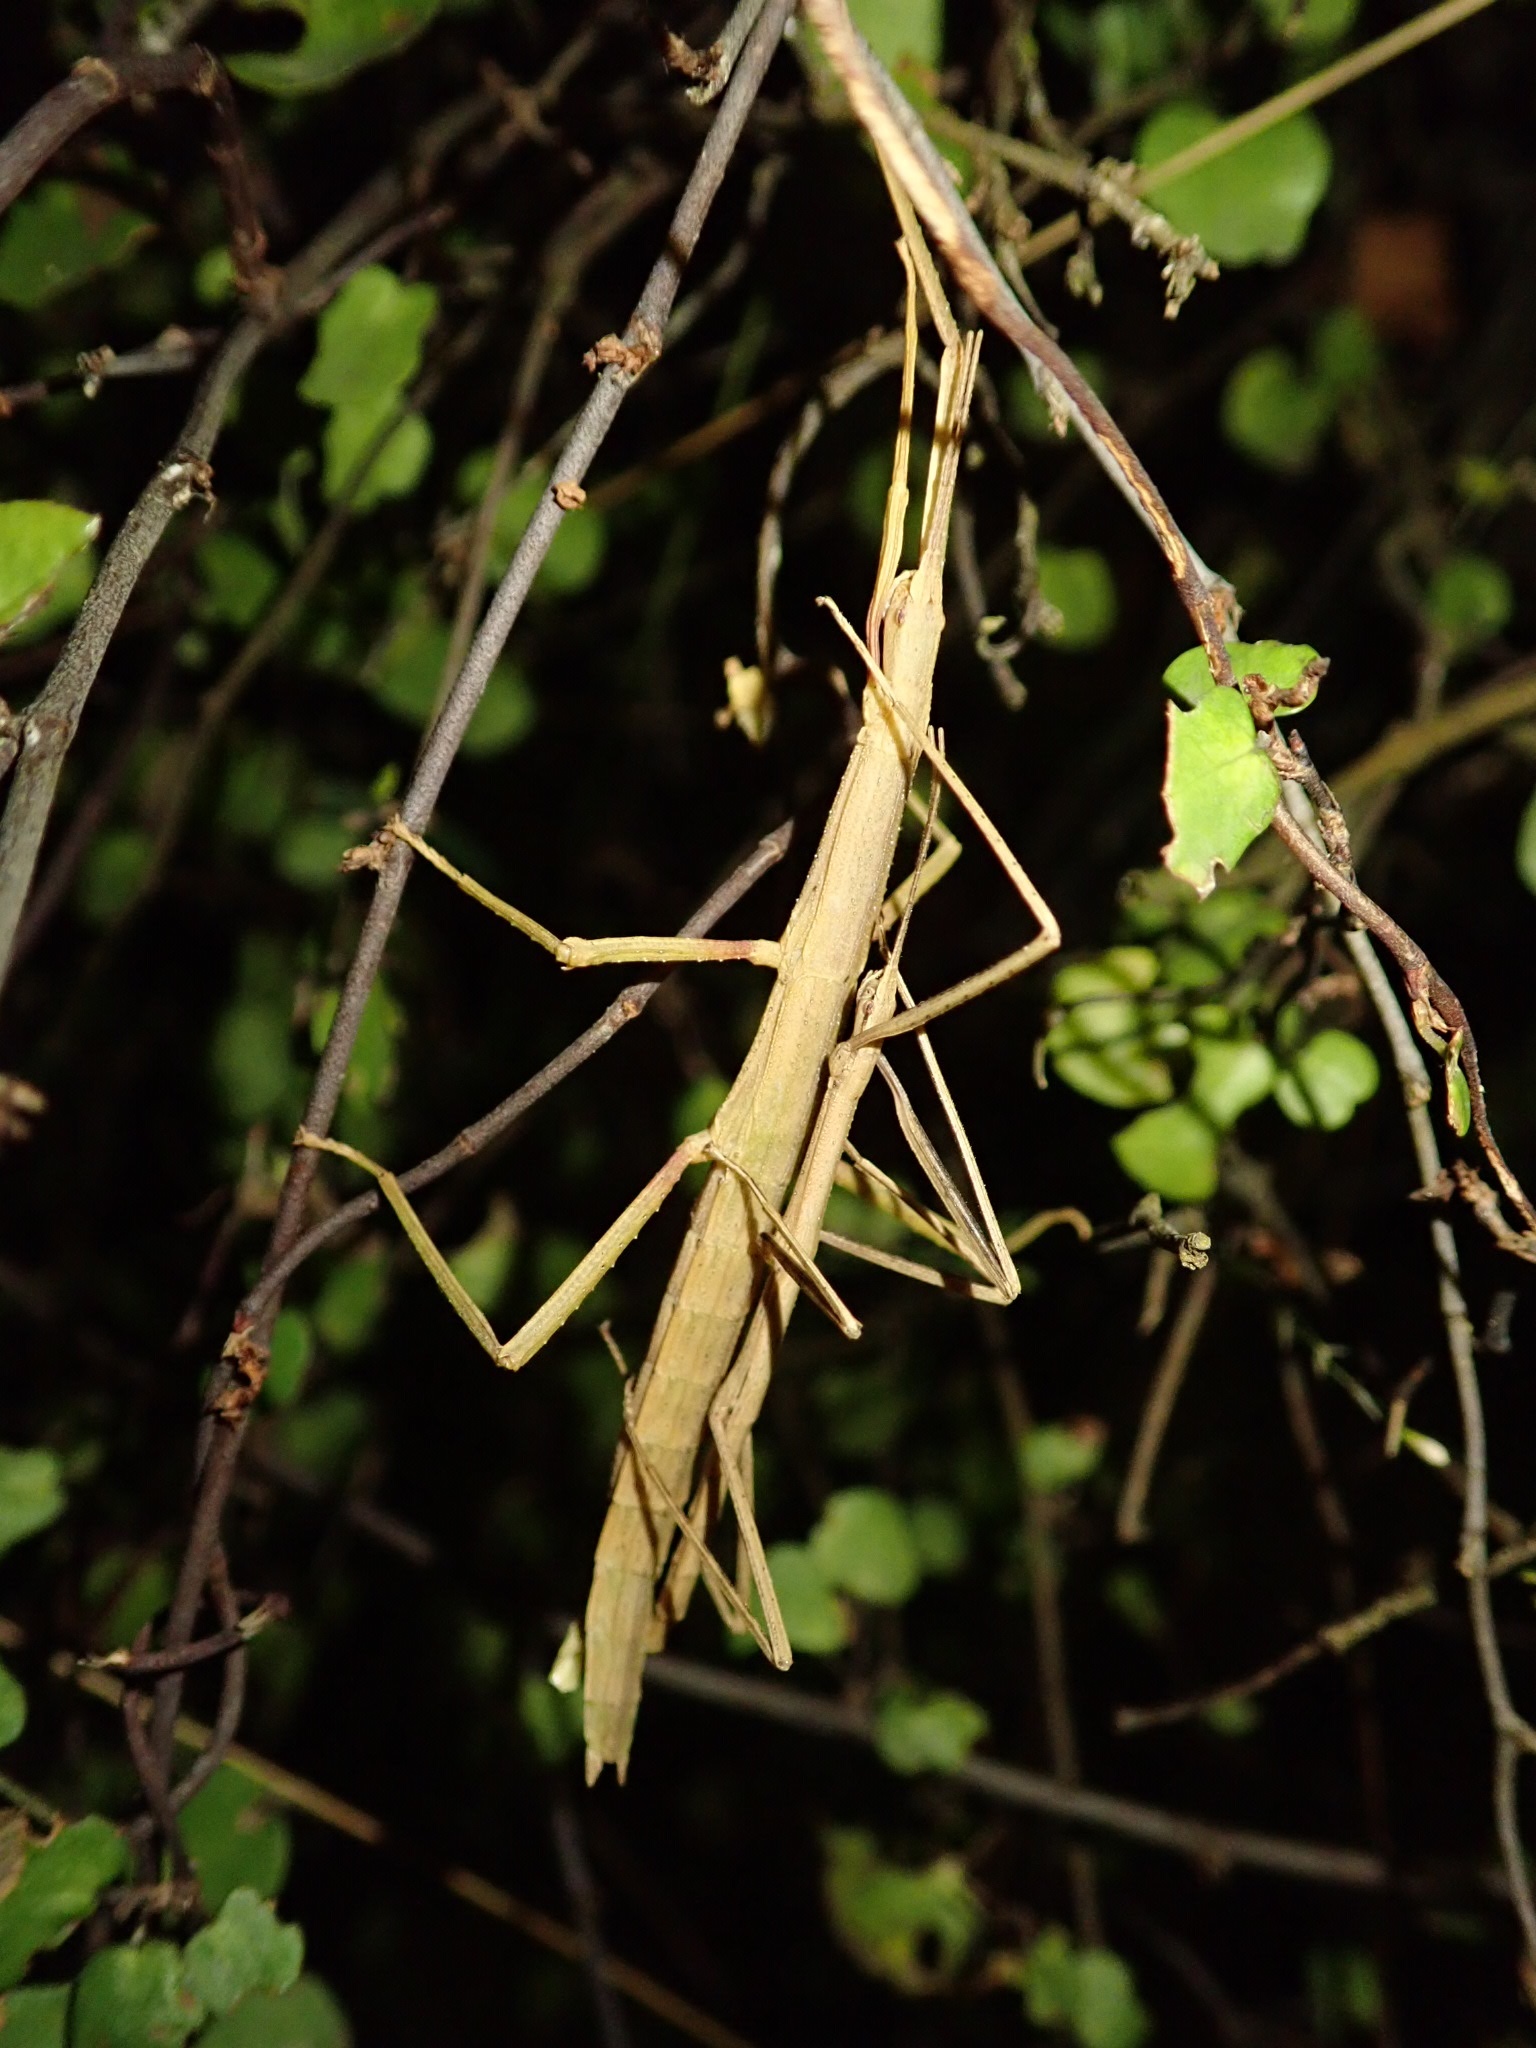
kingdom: Animalia
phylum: Arthropoda
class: Insecta
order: Phasmida
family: Phasmatidae
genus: Tectarchus
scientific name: Tectarchus huttoni
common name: The common ridge-backed stick insect
